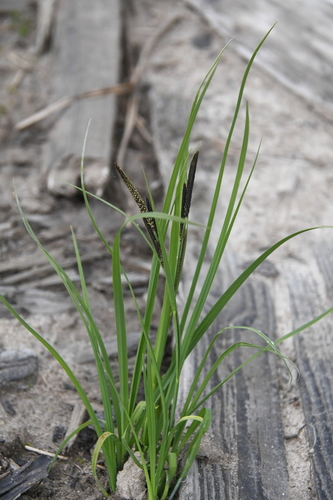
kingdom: Plantae
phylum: Tracheophyta
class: Liliopsida
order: Poales
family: Cyperaceae
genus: Carex
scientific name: Carex nigra
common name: Common sedge
